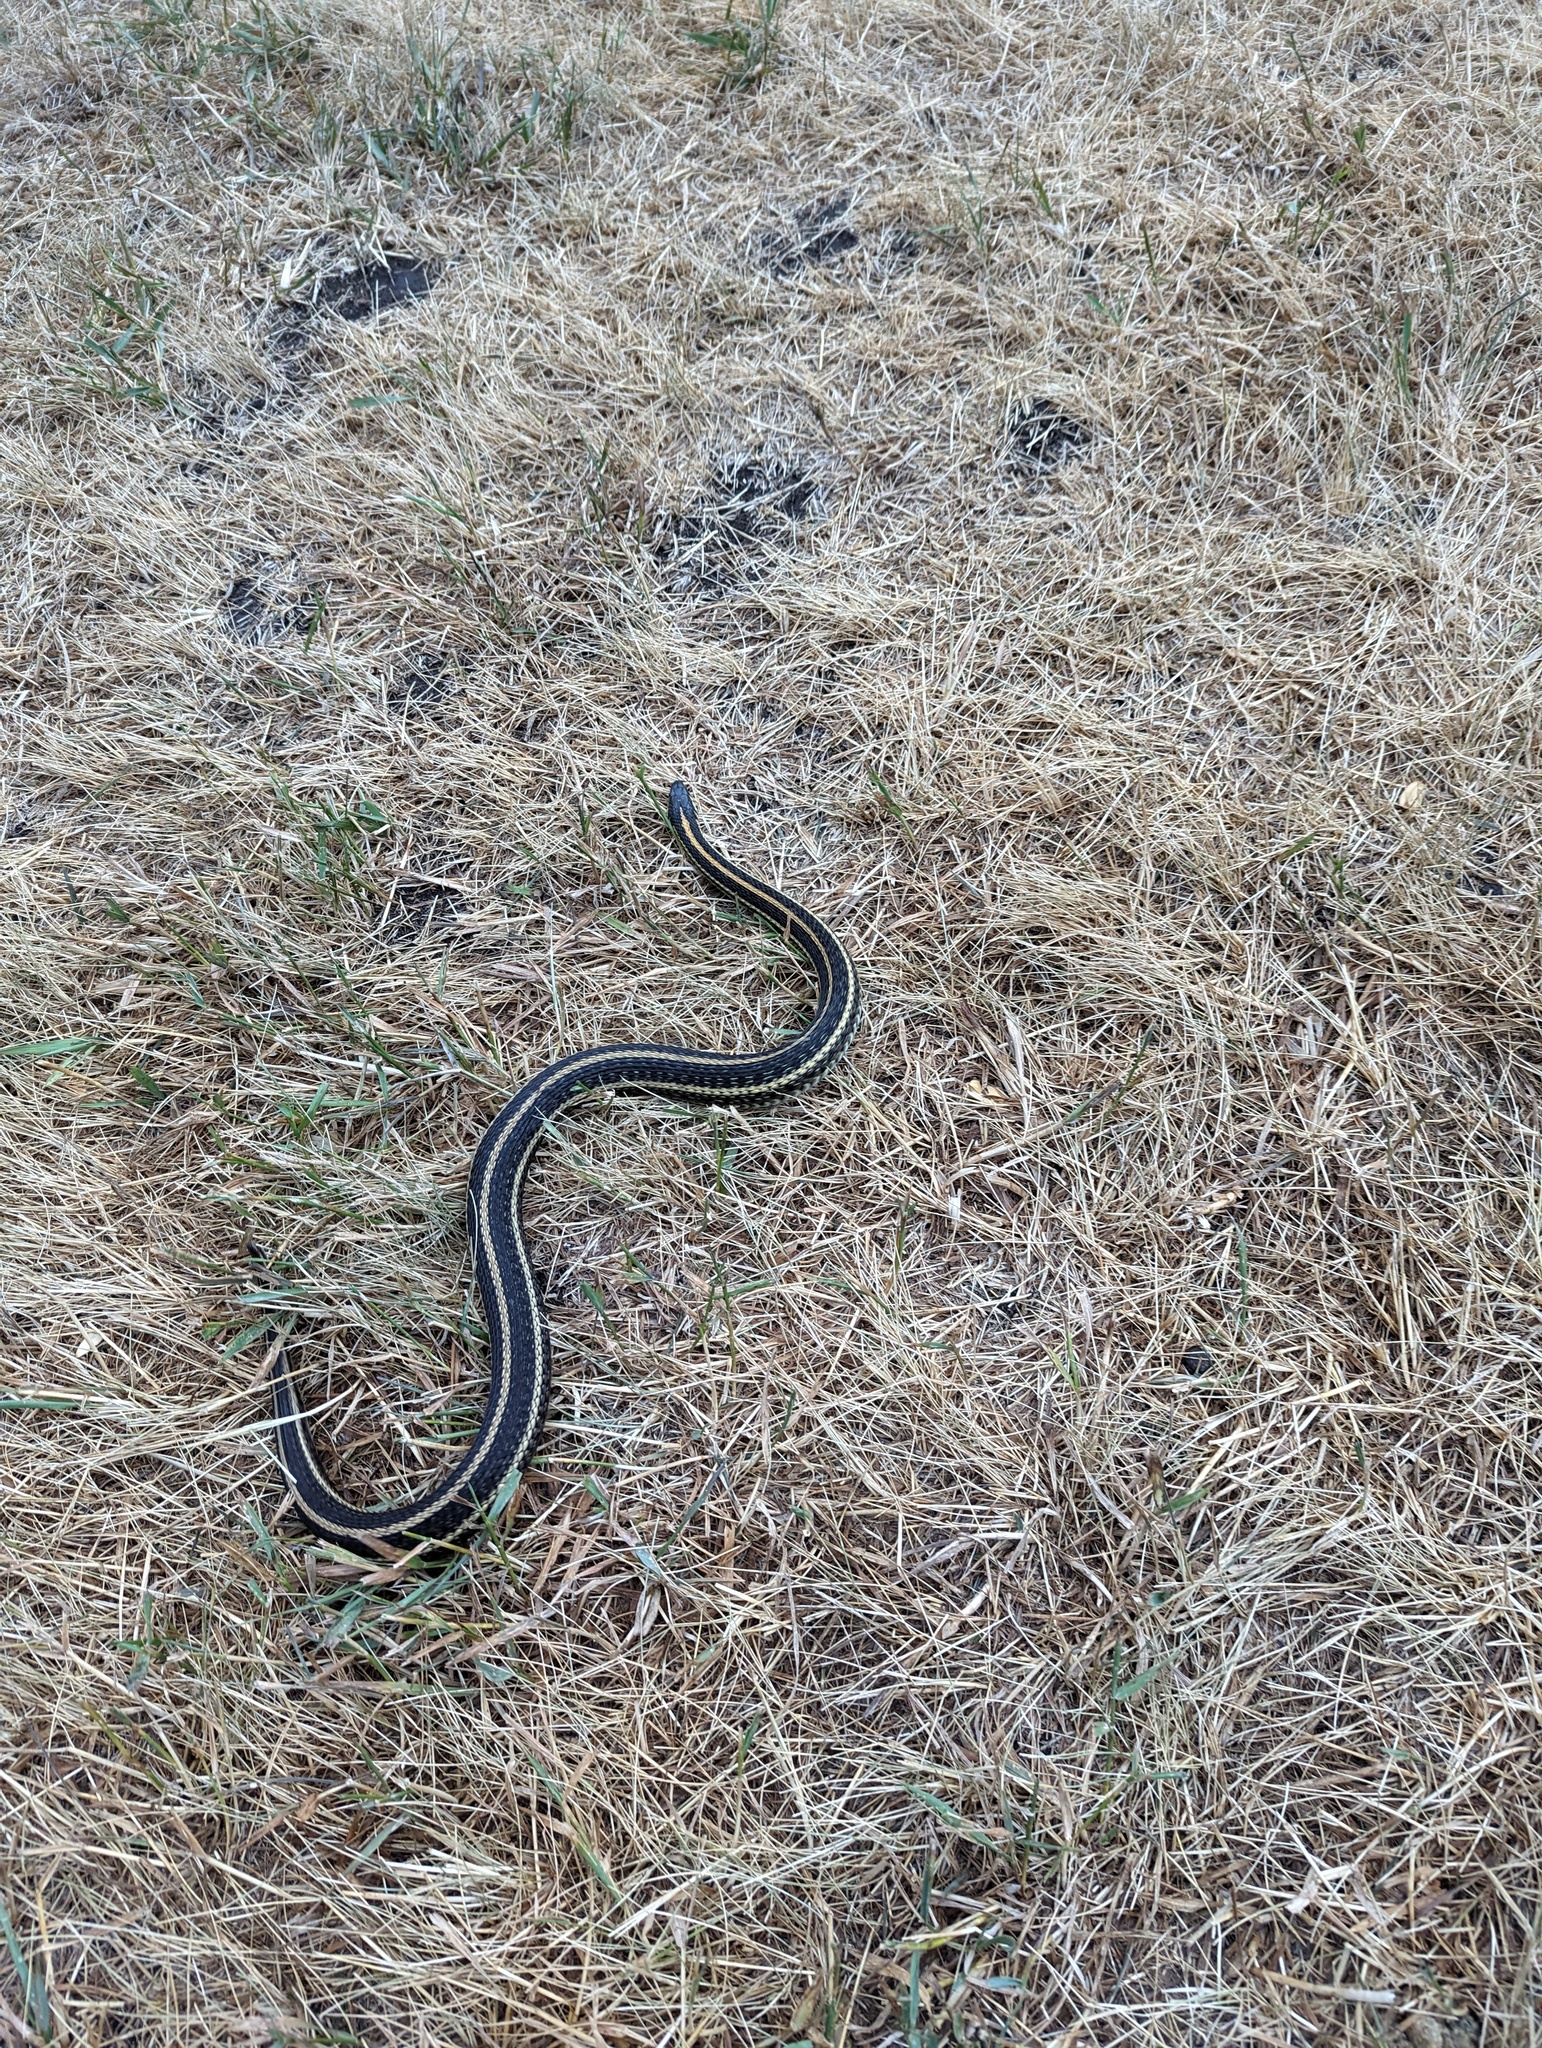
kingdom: Animalia
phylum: Chordata
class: Squamata
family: Colubridae
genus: Thamnophis
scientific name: Thamnophis radix
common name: Plains garter snake
